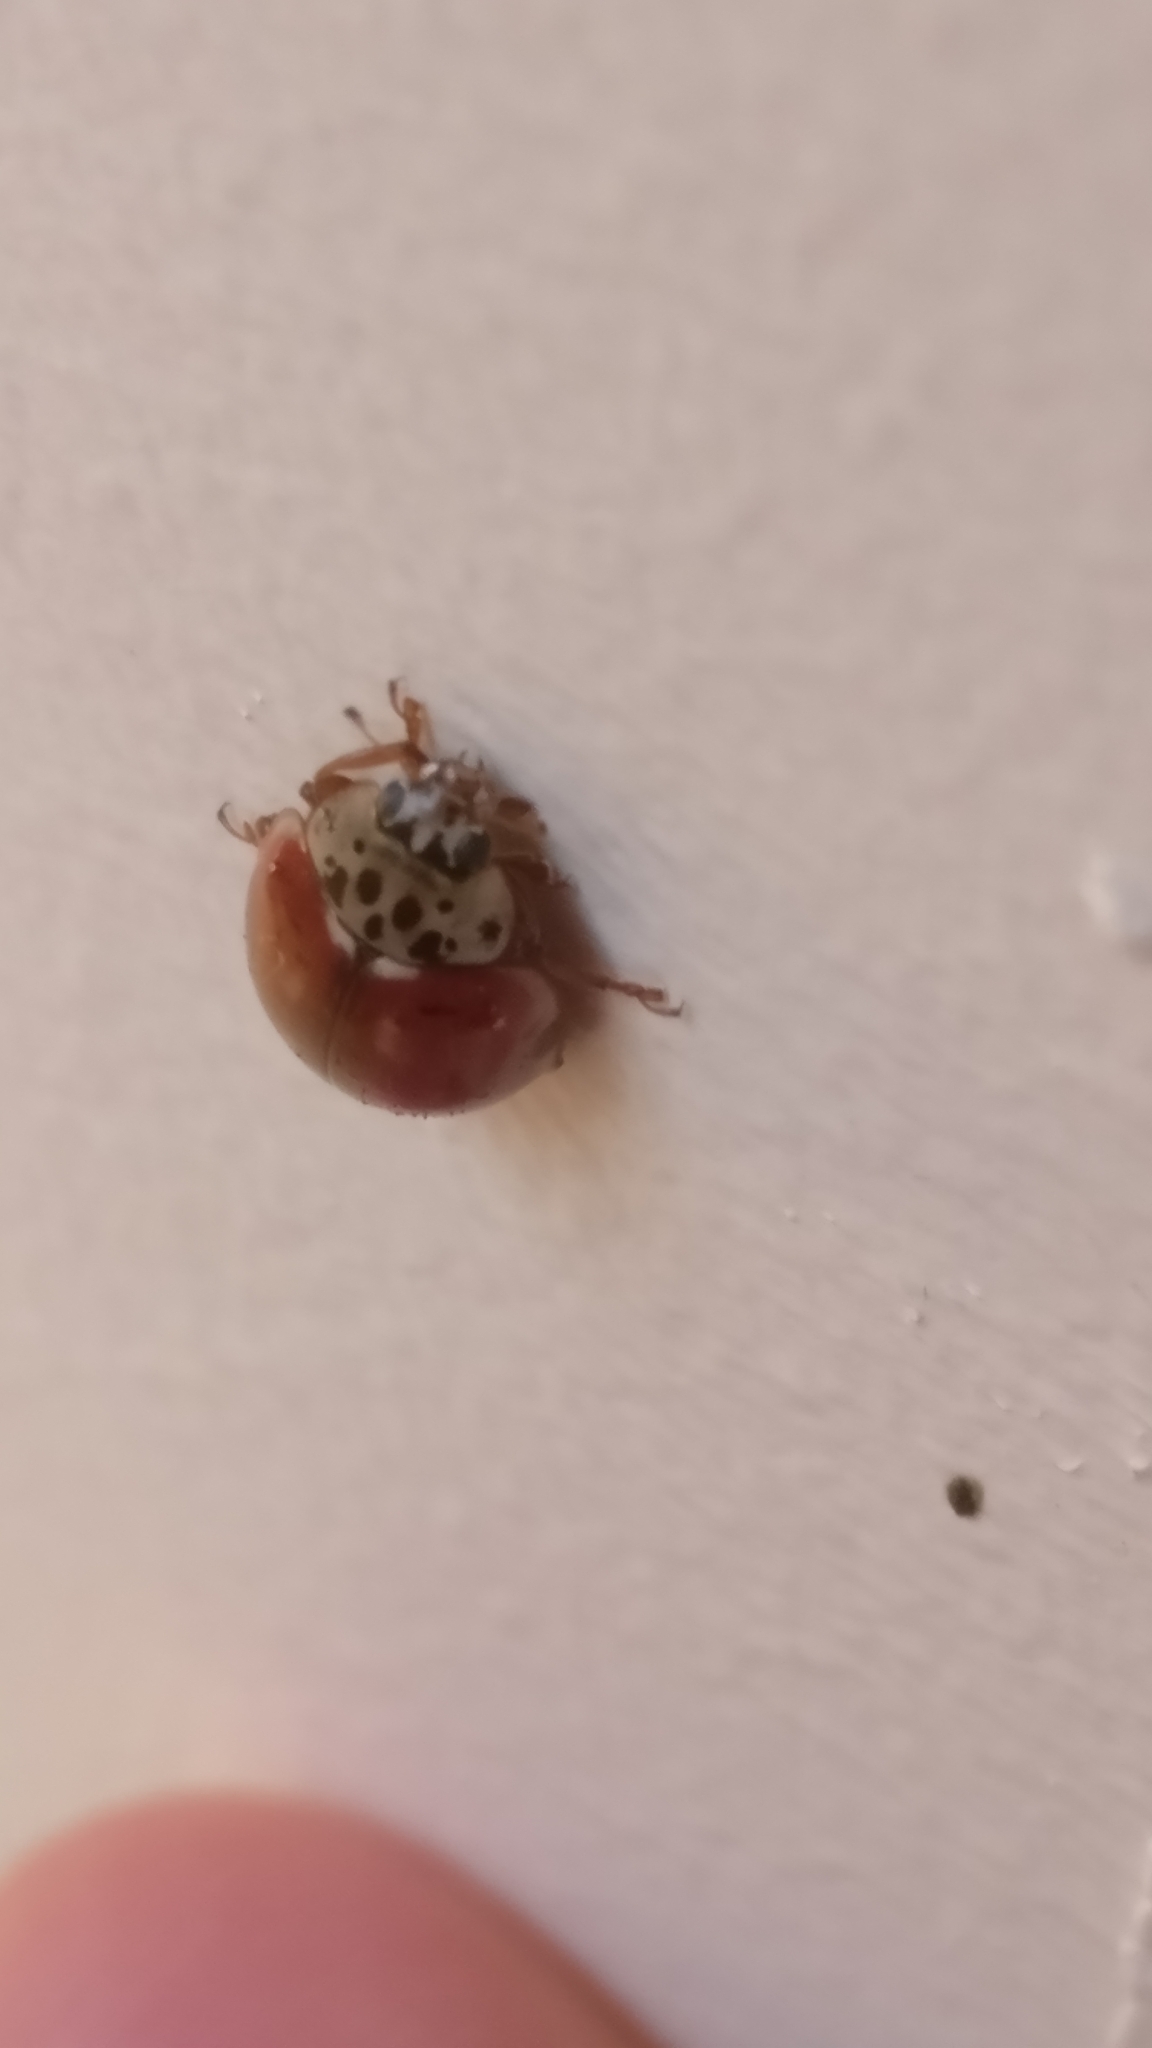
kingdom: Animalia
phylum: Arthropoda
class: Insecta
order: Coleoptera
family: Coccinellidae
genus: Harmonia
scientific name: Harmonia quadripunctata
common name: Cream-streaked ladybird
